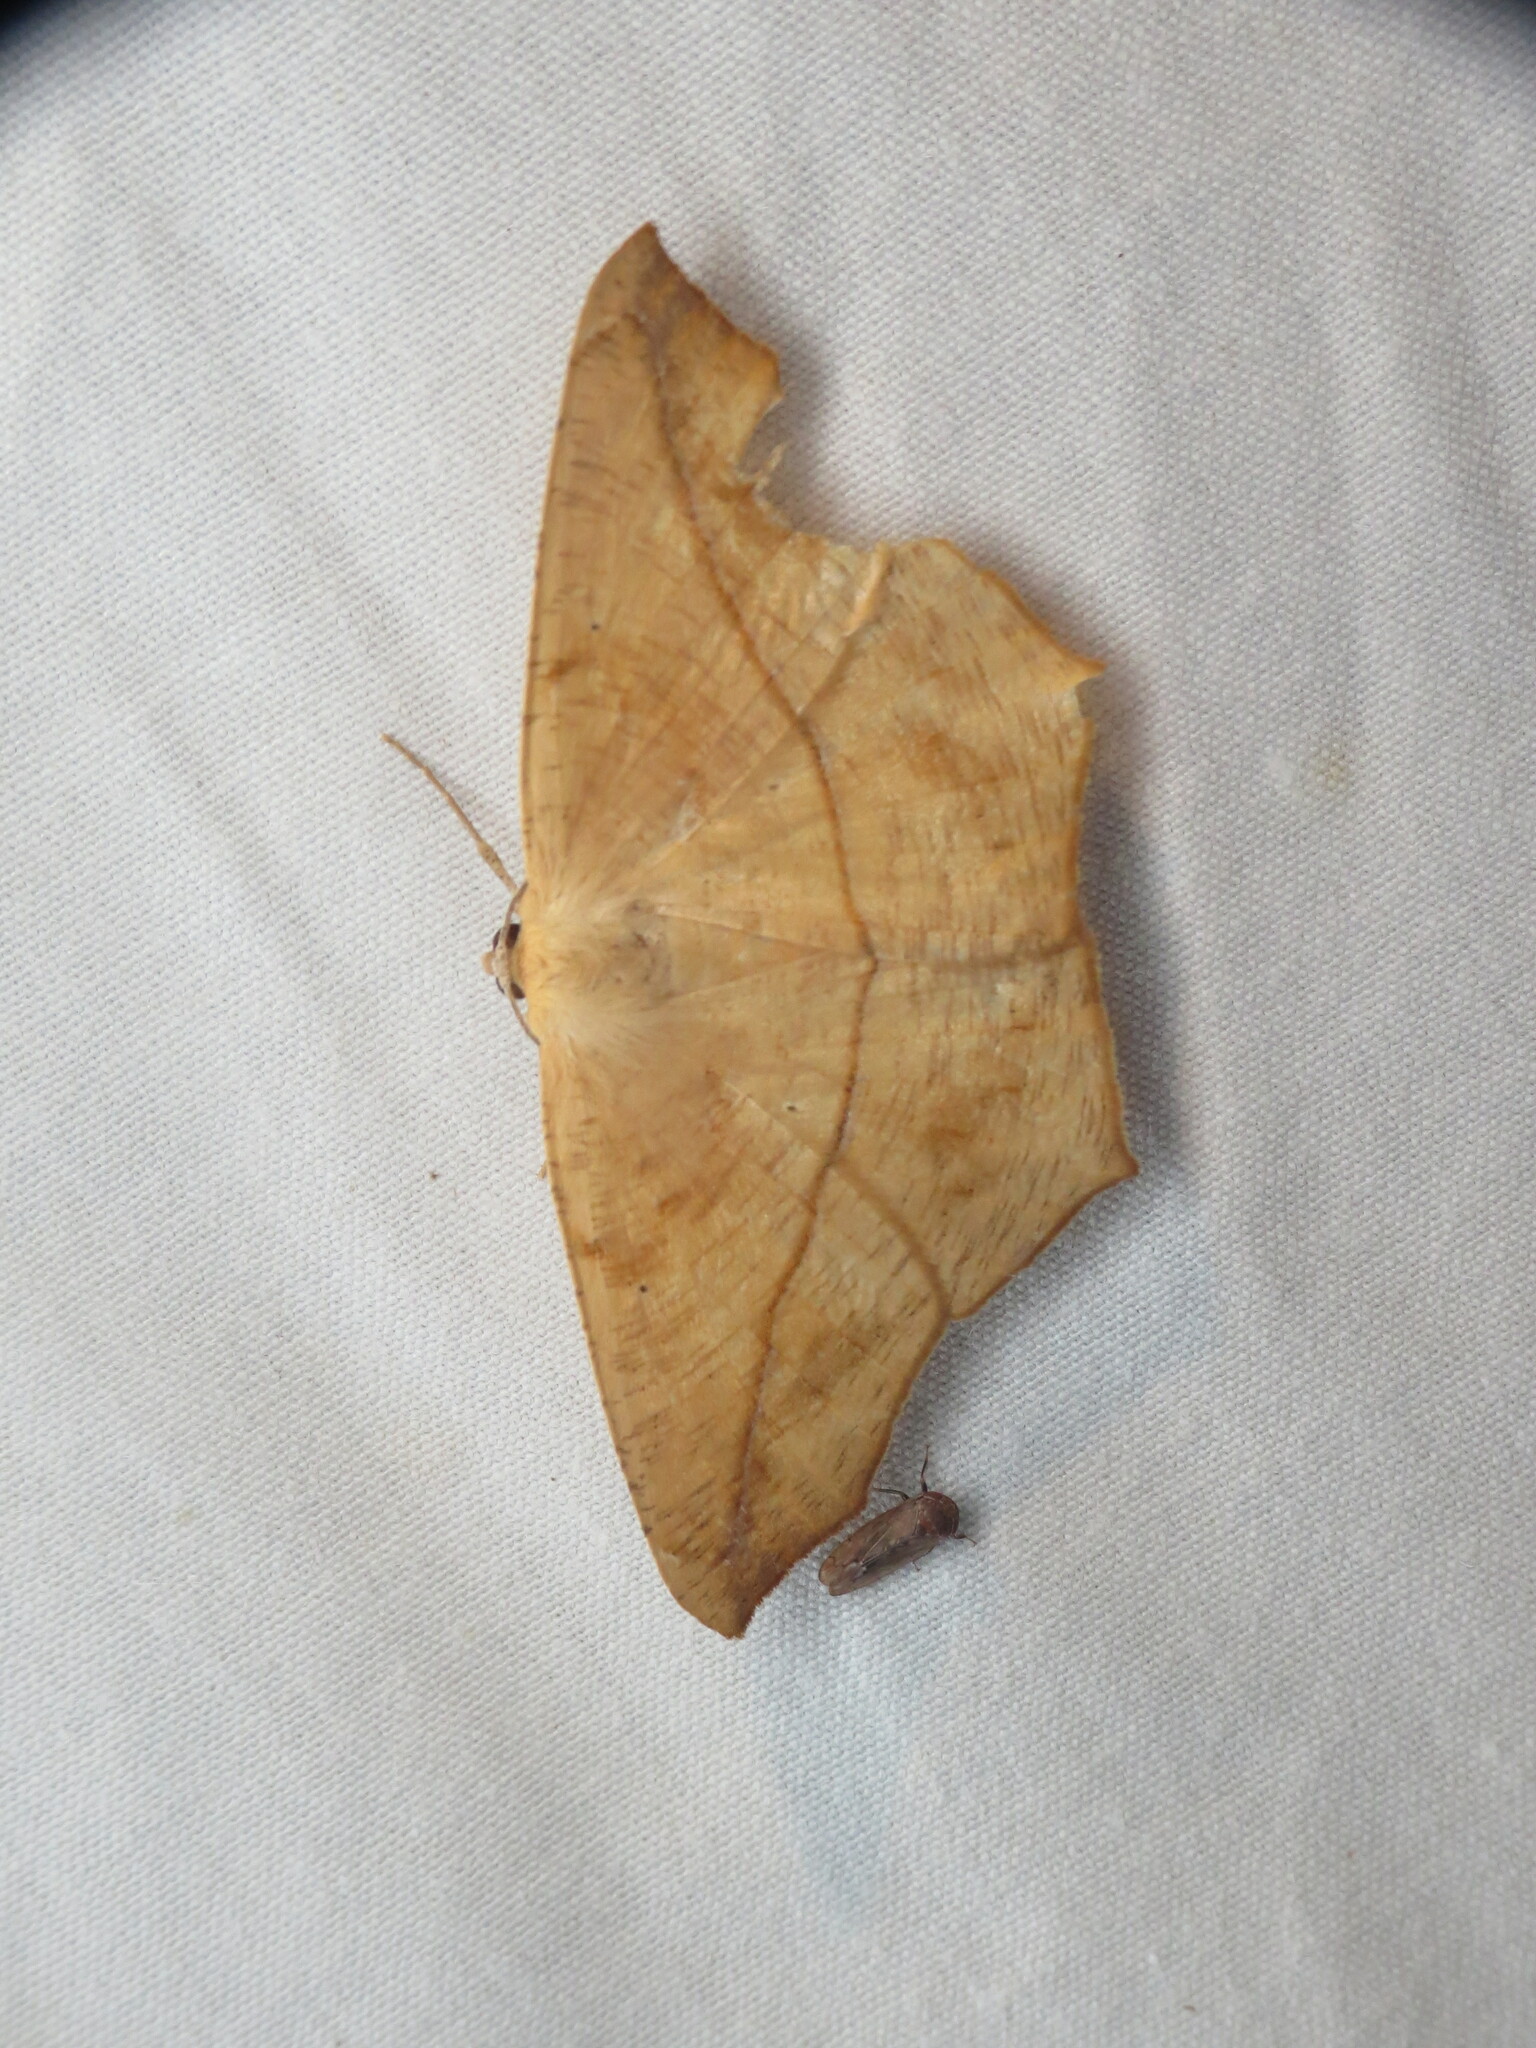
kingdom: Animalia
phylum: Arthropoda
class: Insecta
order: Lepidoptera
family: Geometridae
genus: Prochoerodes
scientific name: Prochoerodes lineola
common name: Large maple spanworm
